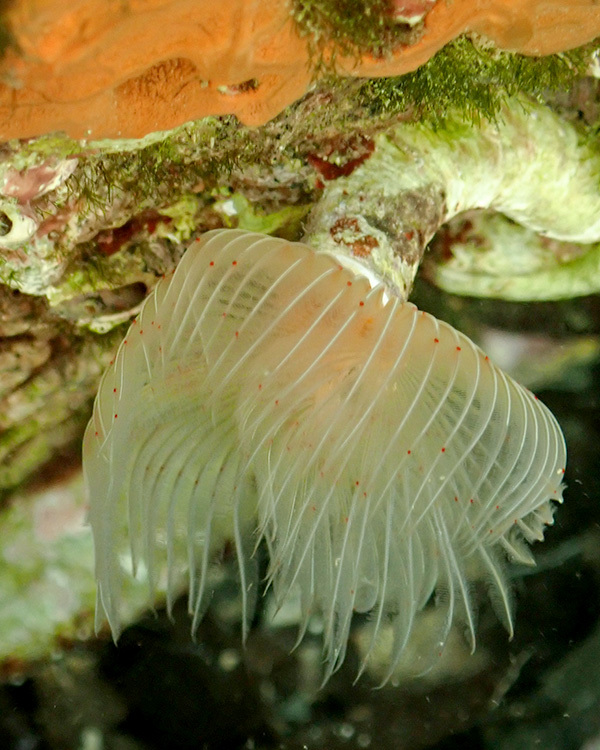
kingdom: Animalia
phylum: Annelida
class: Polychaeta
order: Sabellida
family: Serpulidae
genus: Protula
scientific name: Protula tubularia
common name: Red-spotted horseshoe
